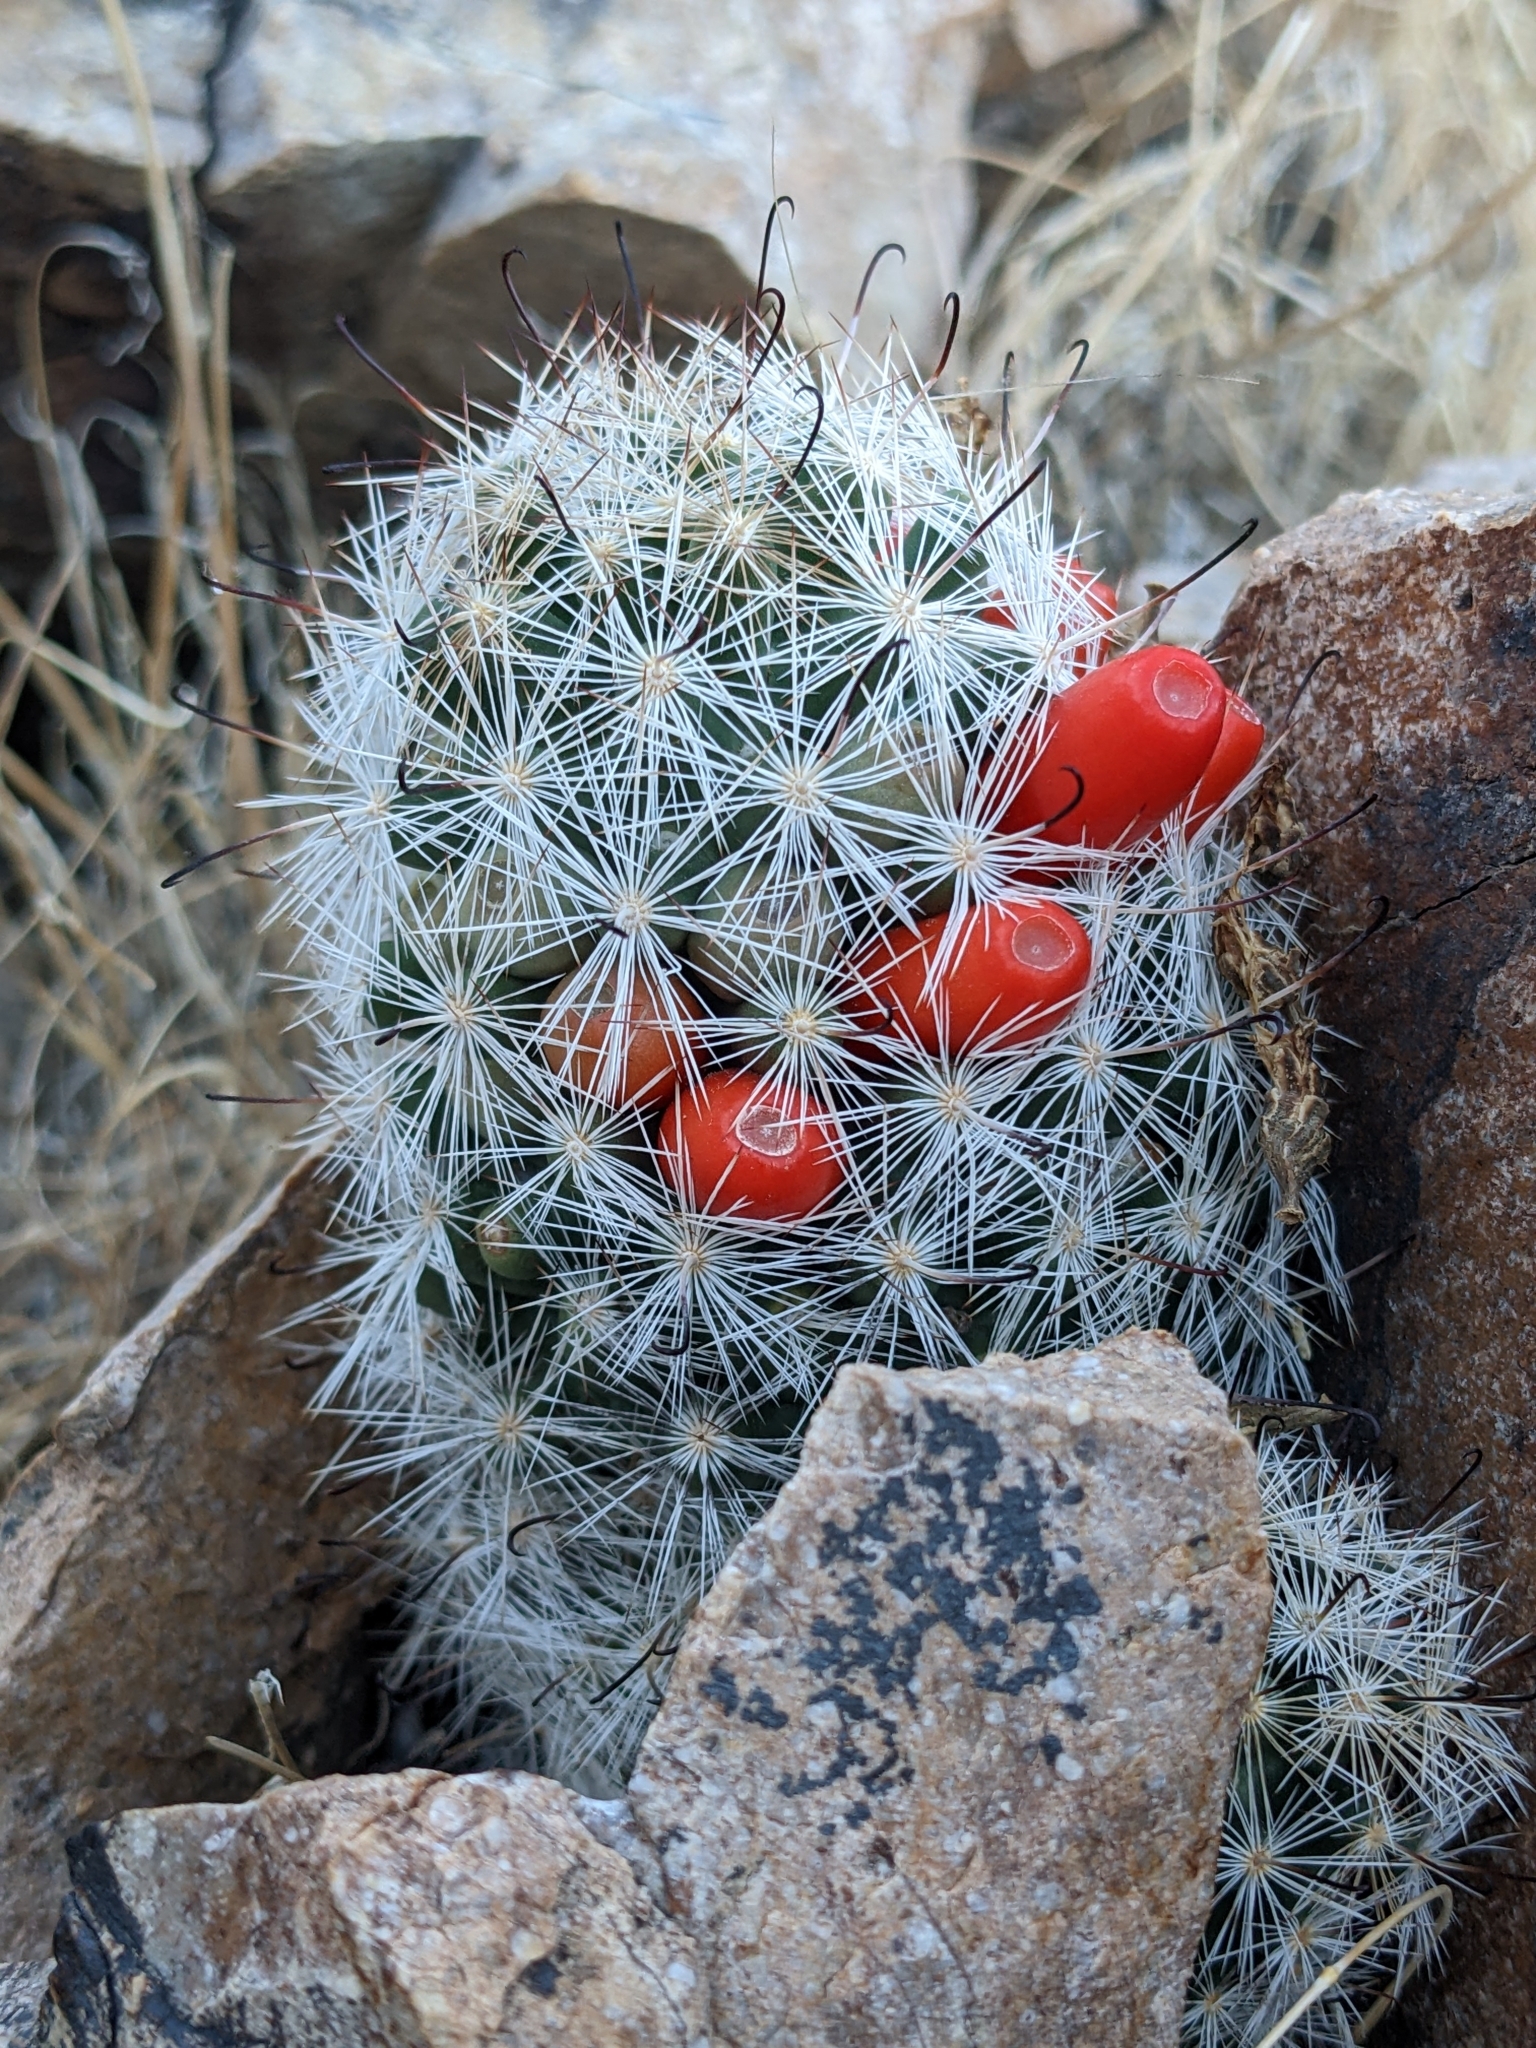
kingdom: Plantae
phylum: Tracheophyta
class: Magnoliopsida
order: Caryophyllales
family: Cactaceae
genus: Cochemiea
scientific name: Cochemiea tetrancistra
